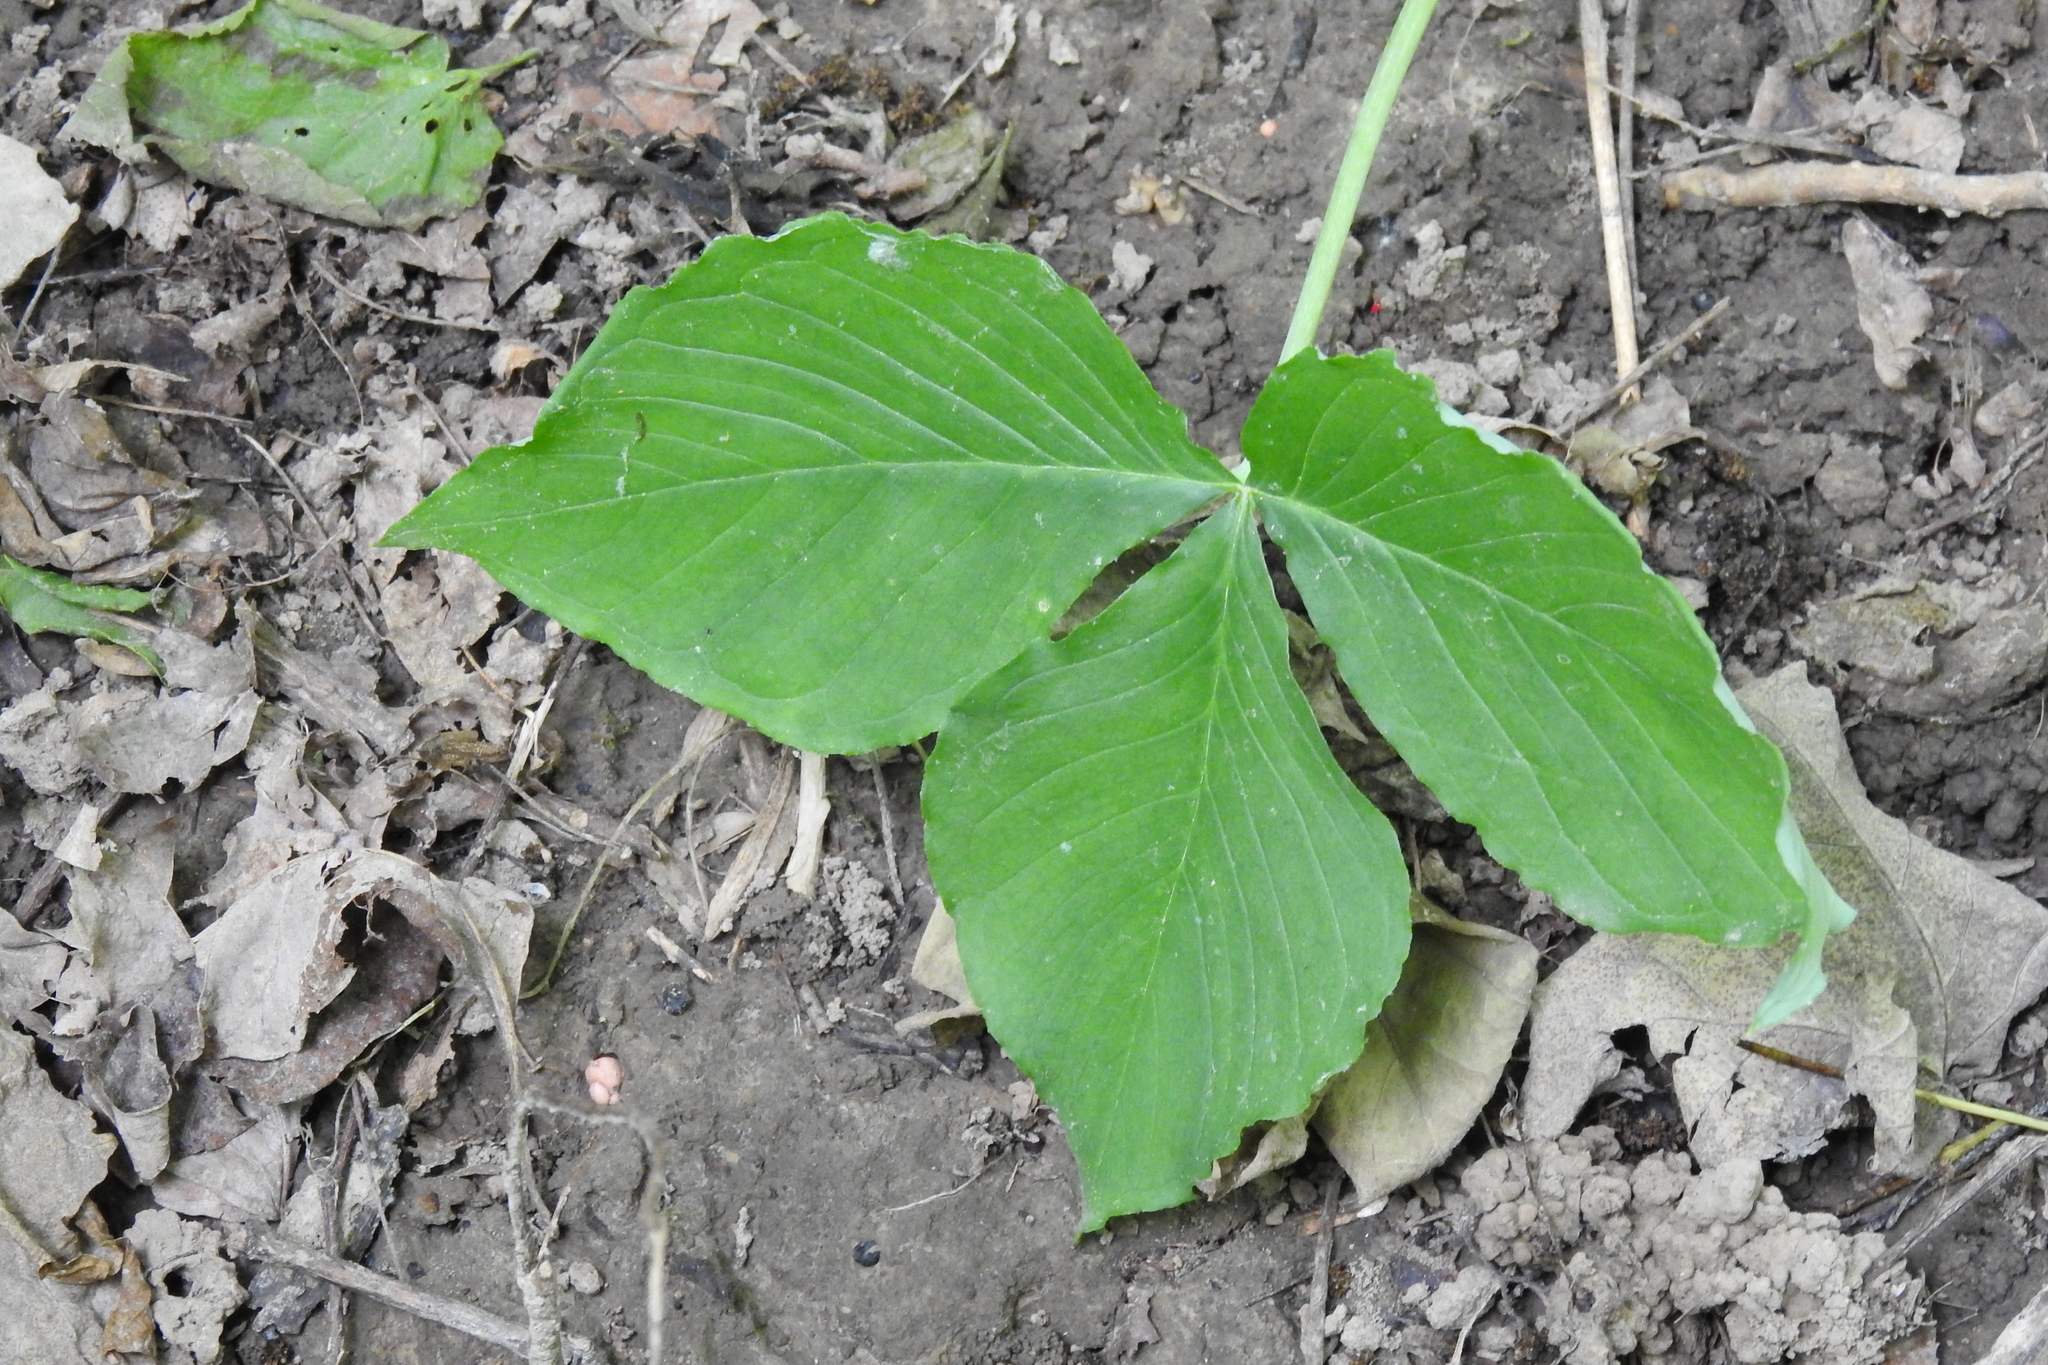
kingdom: Plantae
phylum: Tracheophyta
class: Liliopsida
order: Alismatales
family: Araceae
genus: Arisaema
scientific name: Arisaema triphyllum
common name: Jack-in-the-pulpit
